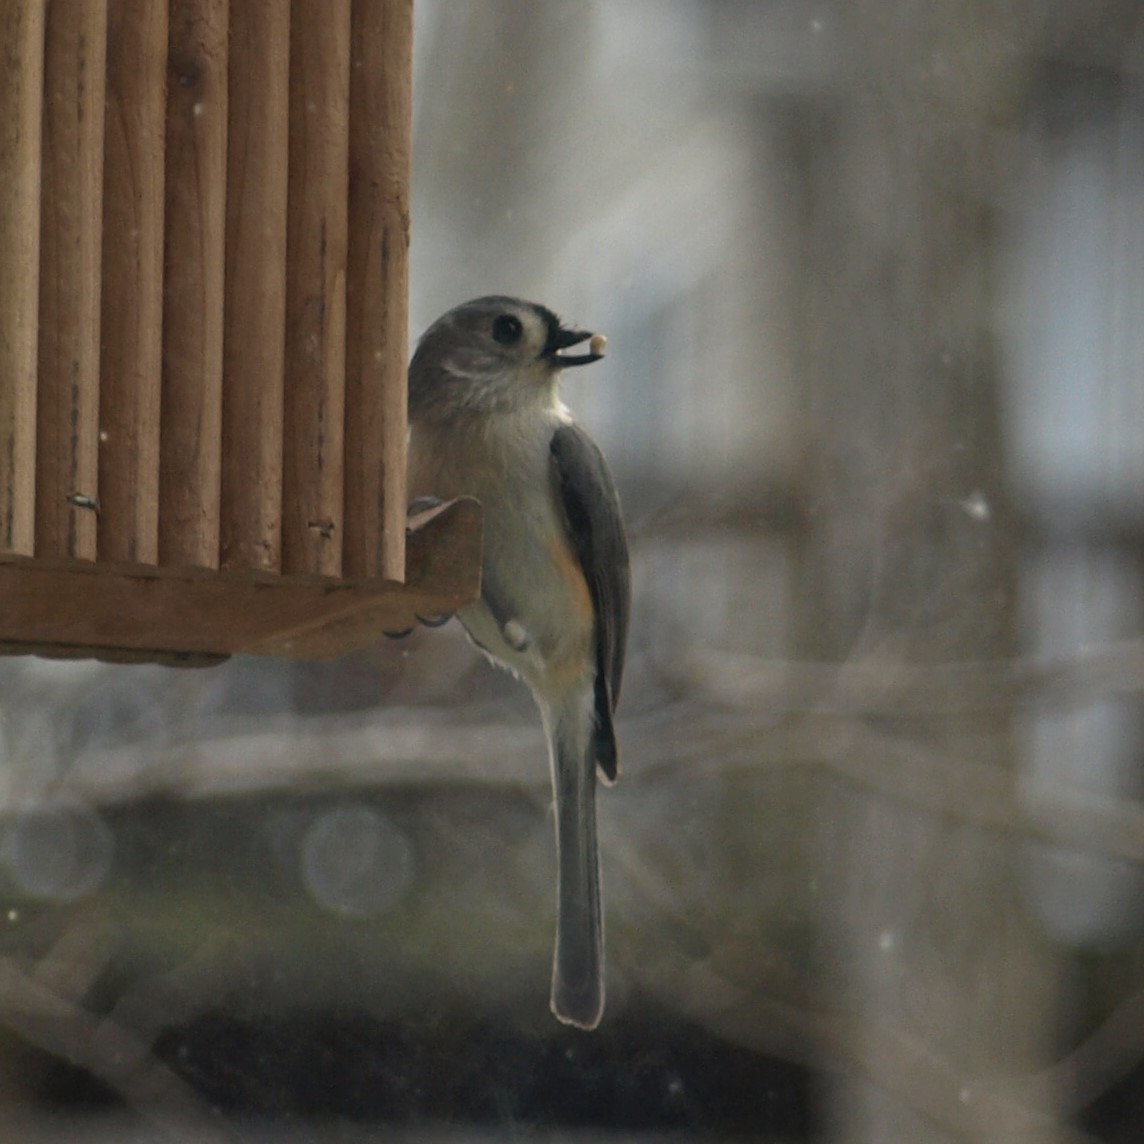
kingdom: Animalia
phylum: Chordata
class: Aves
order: Passeriformes
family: Paridae
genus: Baeolophus
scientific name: Baeolophus bicolor
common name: Tufted titmouse
